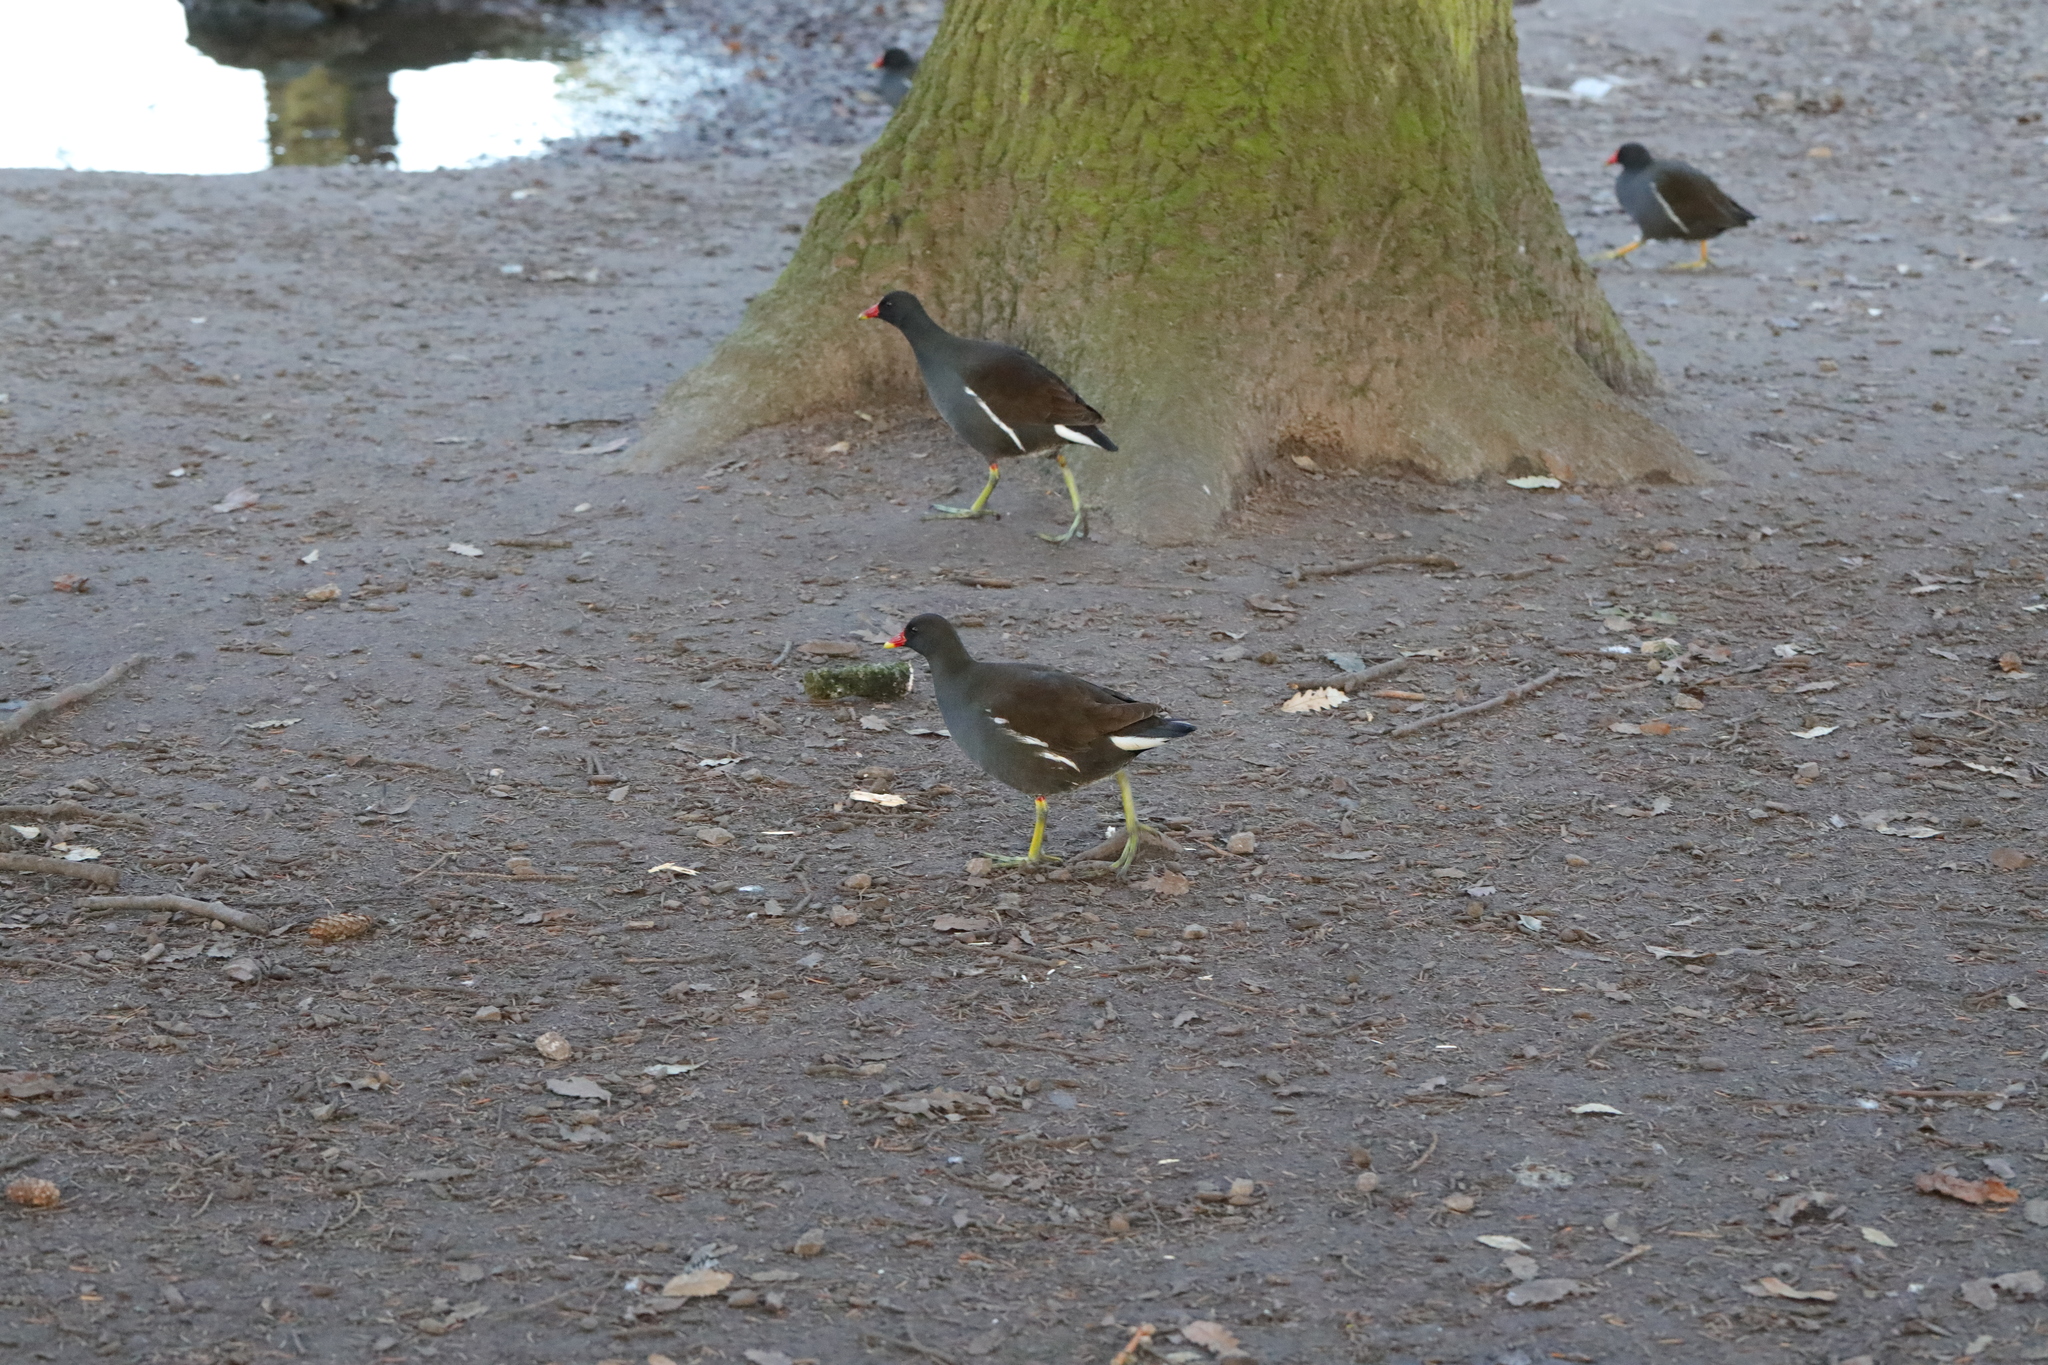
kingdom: Animalia
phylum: Chordata
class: Aves
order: Gruiformes
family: Rallidae
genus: Gallinula
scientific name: Gallinula chloropus
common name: Common moorhen
